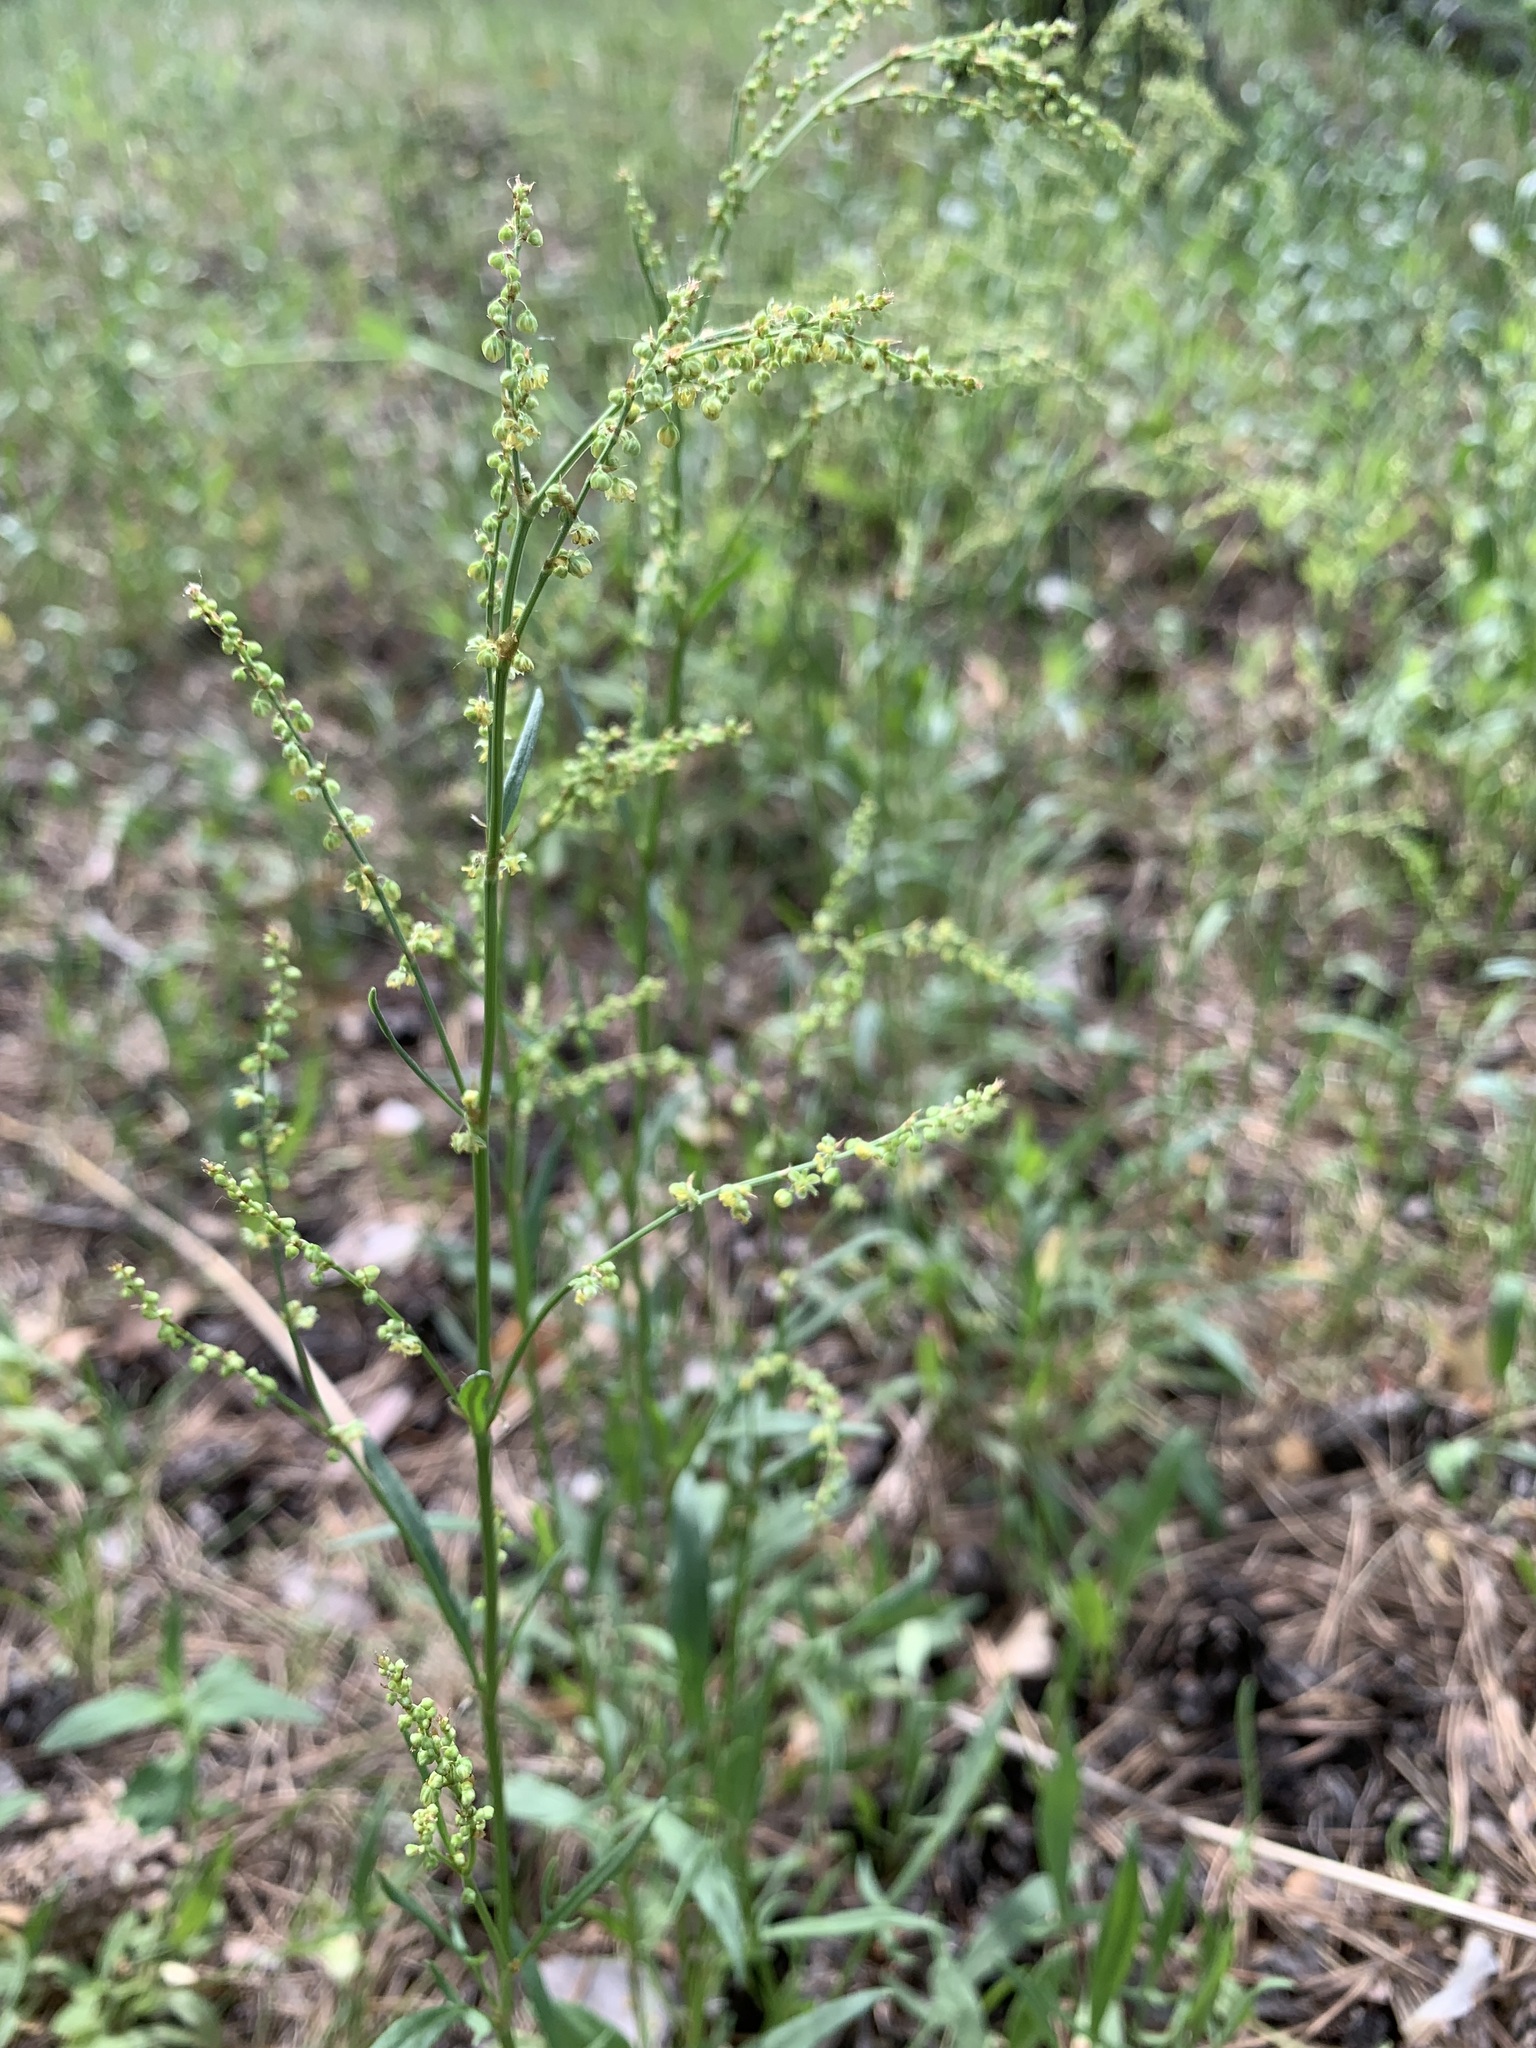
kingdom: Plantae
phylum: Tracheophyta
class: Magnoliopsida
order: Caryophyllales
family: Polygonaceae
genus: Rumex
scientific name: Rumex acetosella
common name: Common sheep sorrel
